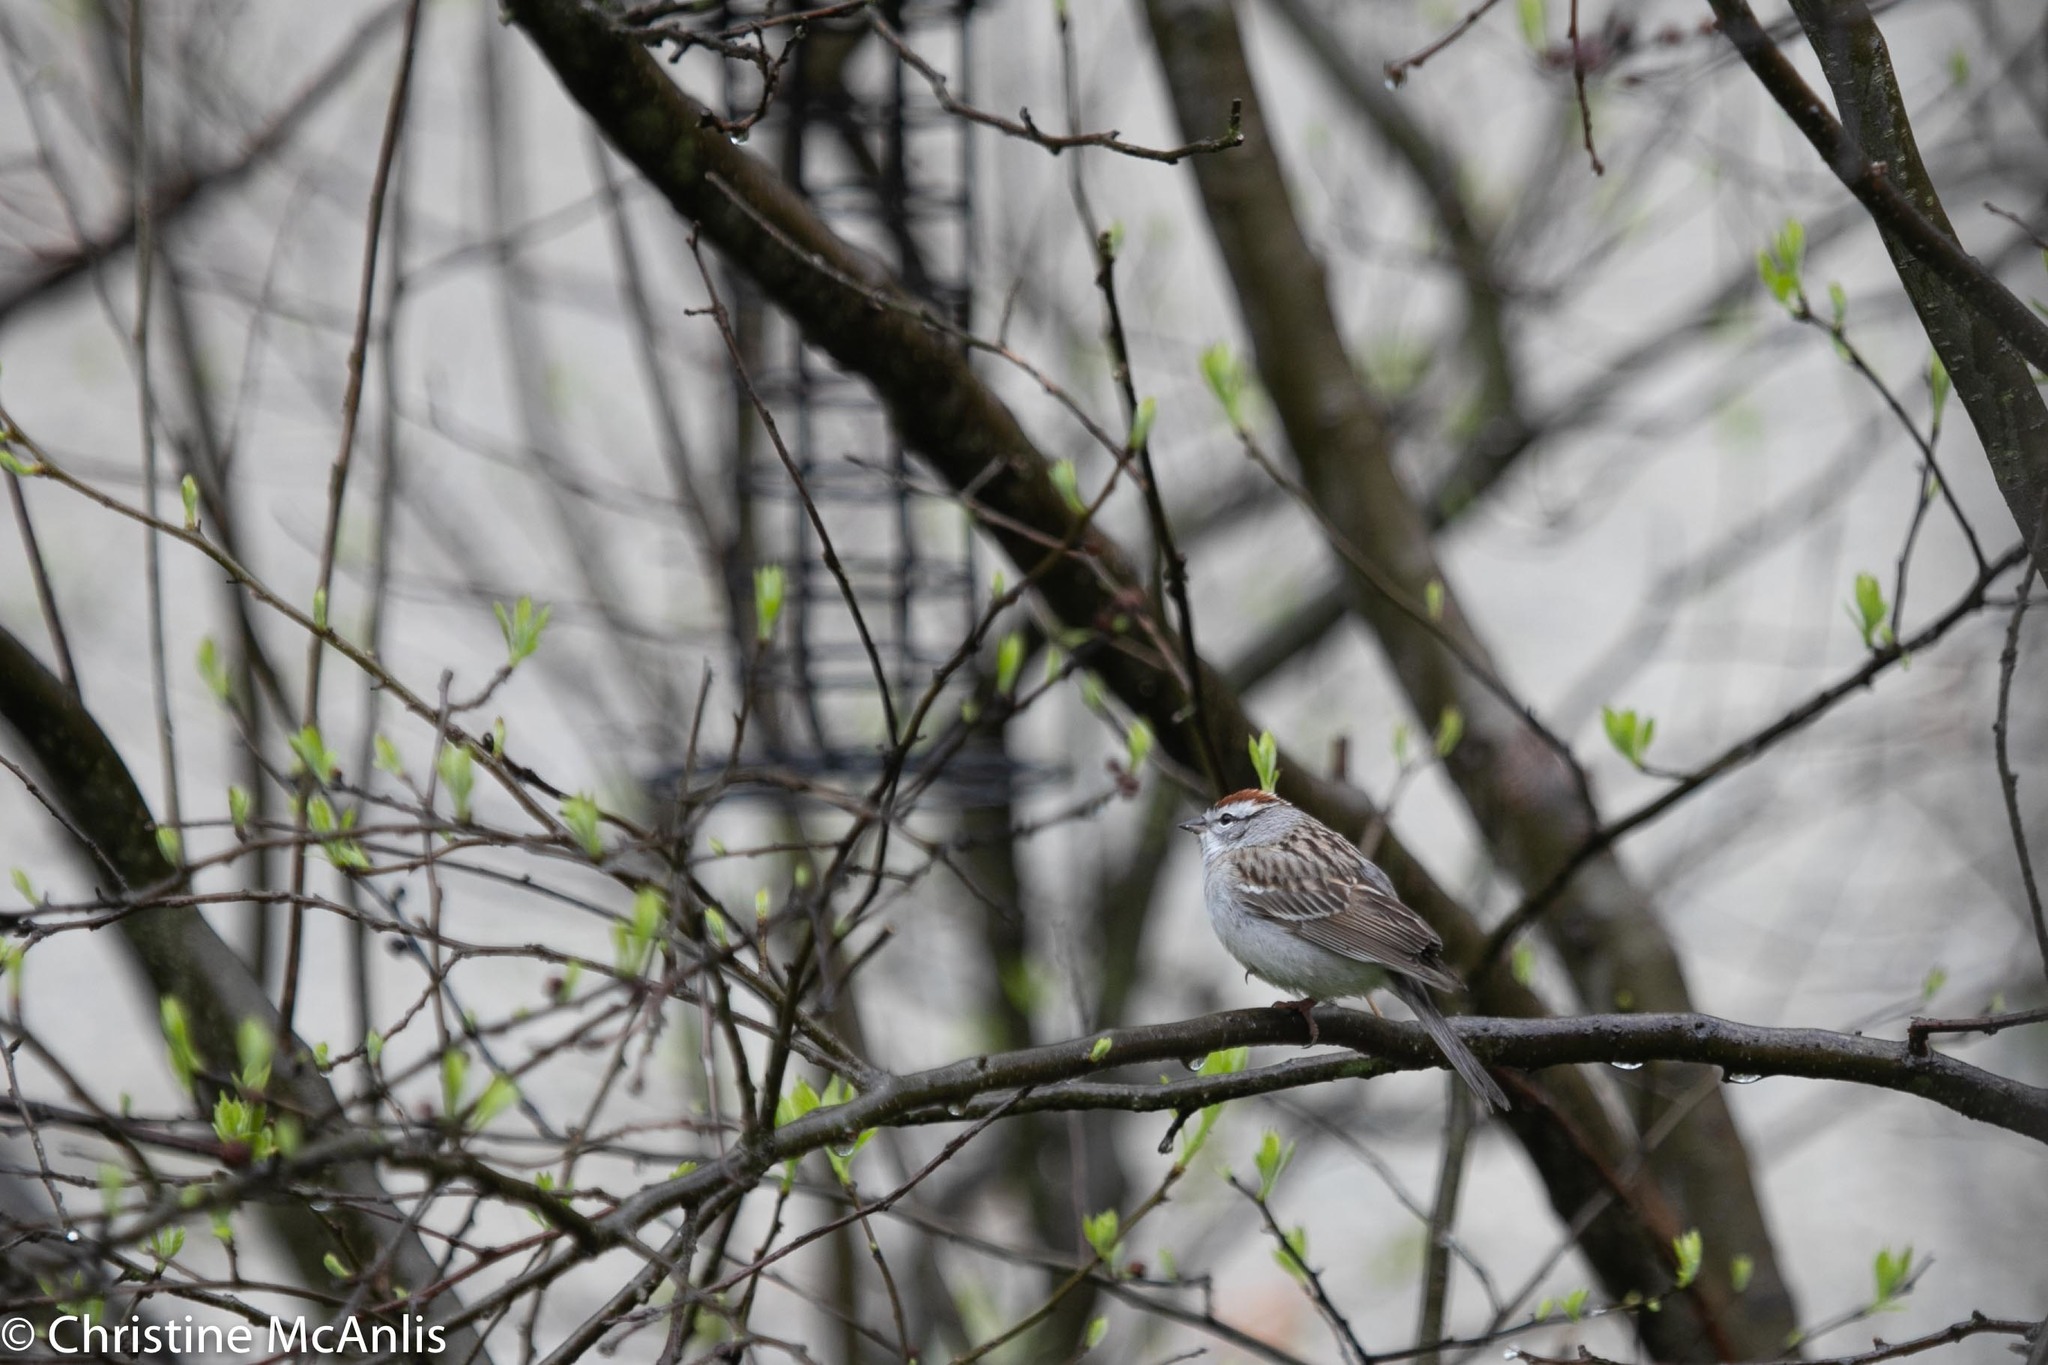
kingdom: Animalia
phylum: Chordata
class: Aves
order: Passeriformes
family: Passerellidae
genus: Spizella
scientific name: Spizella passerina
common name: Chipping sparrow
